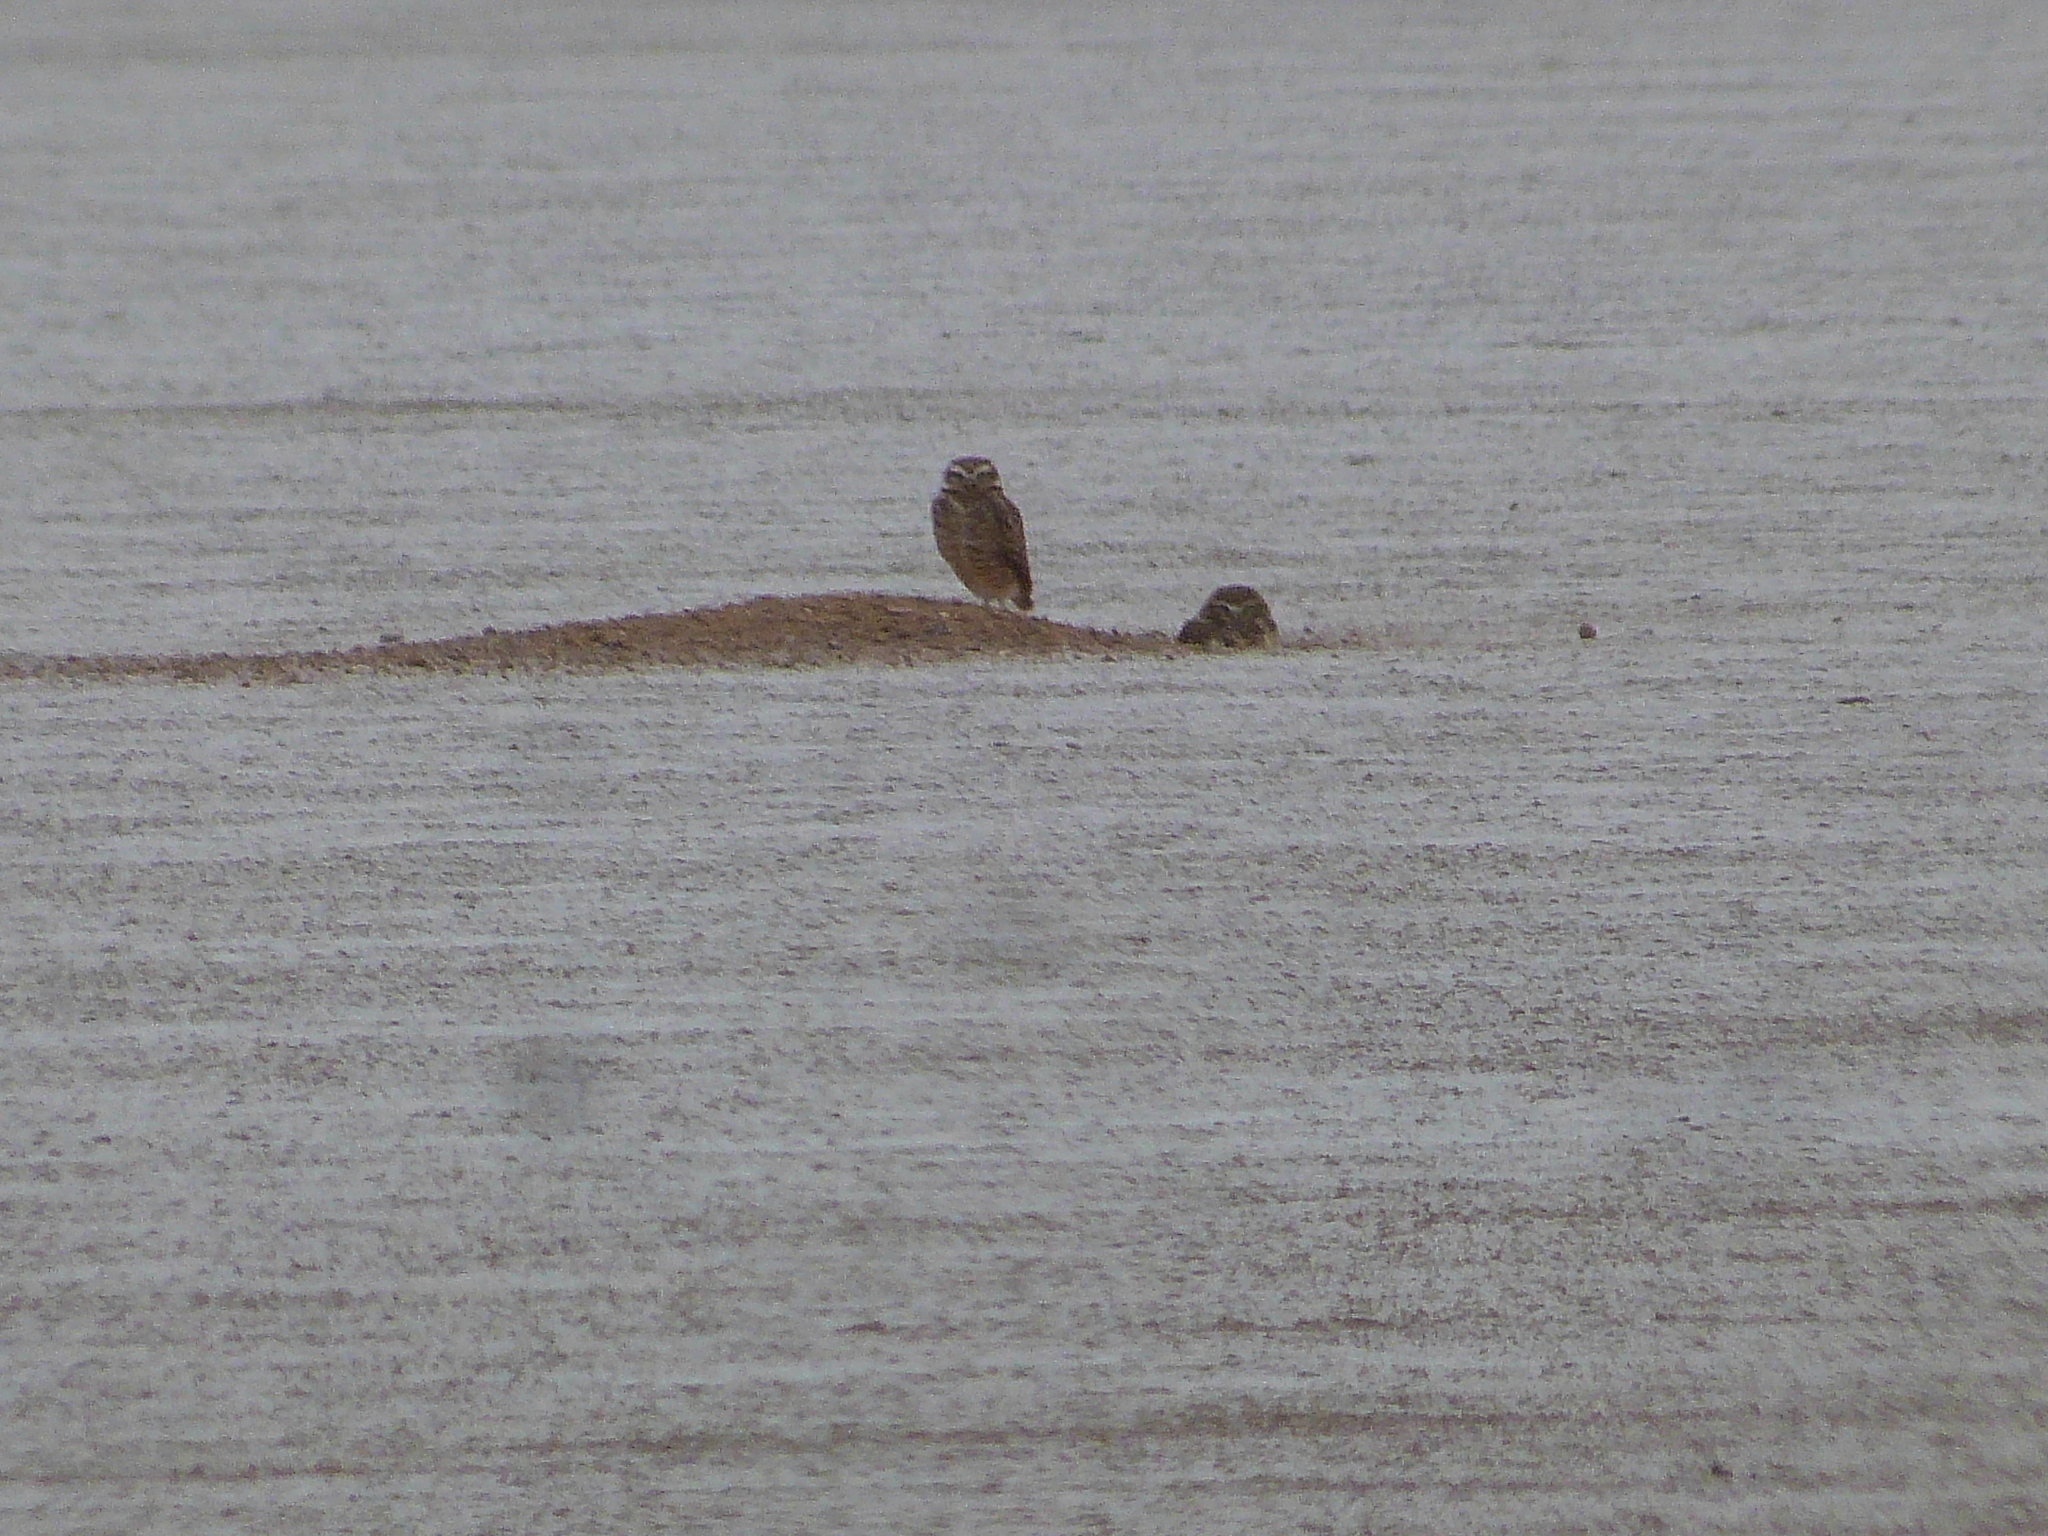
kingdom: Animalia
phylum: Chordata
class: Aves
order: Strigiformes
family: Strigidae
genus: Athene
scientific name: Athene cunicularia
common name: Burrowing owl
